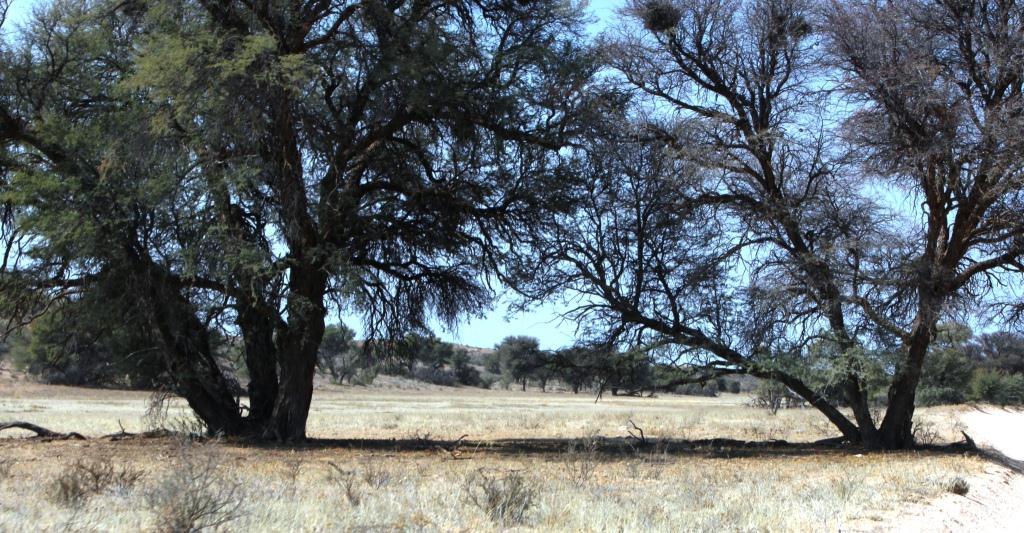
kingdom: Plantae
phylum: Tracheophyta
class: Magnoliopsida
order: Fabales
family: Fabaceae
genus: Vachellia
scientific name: Vachellia erioloba
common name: Camel thorn
